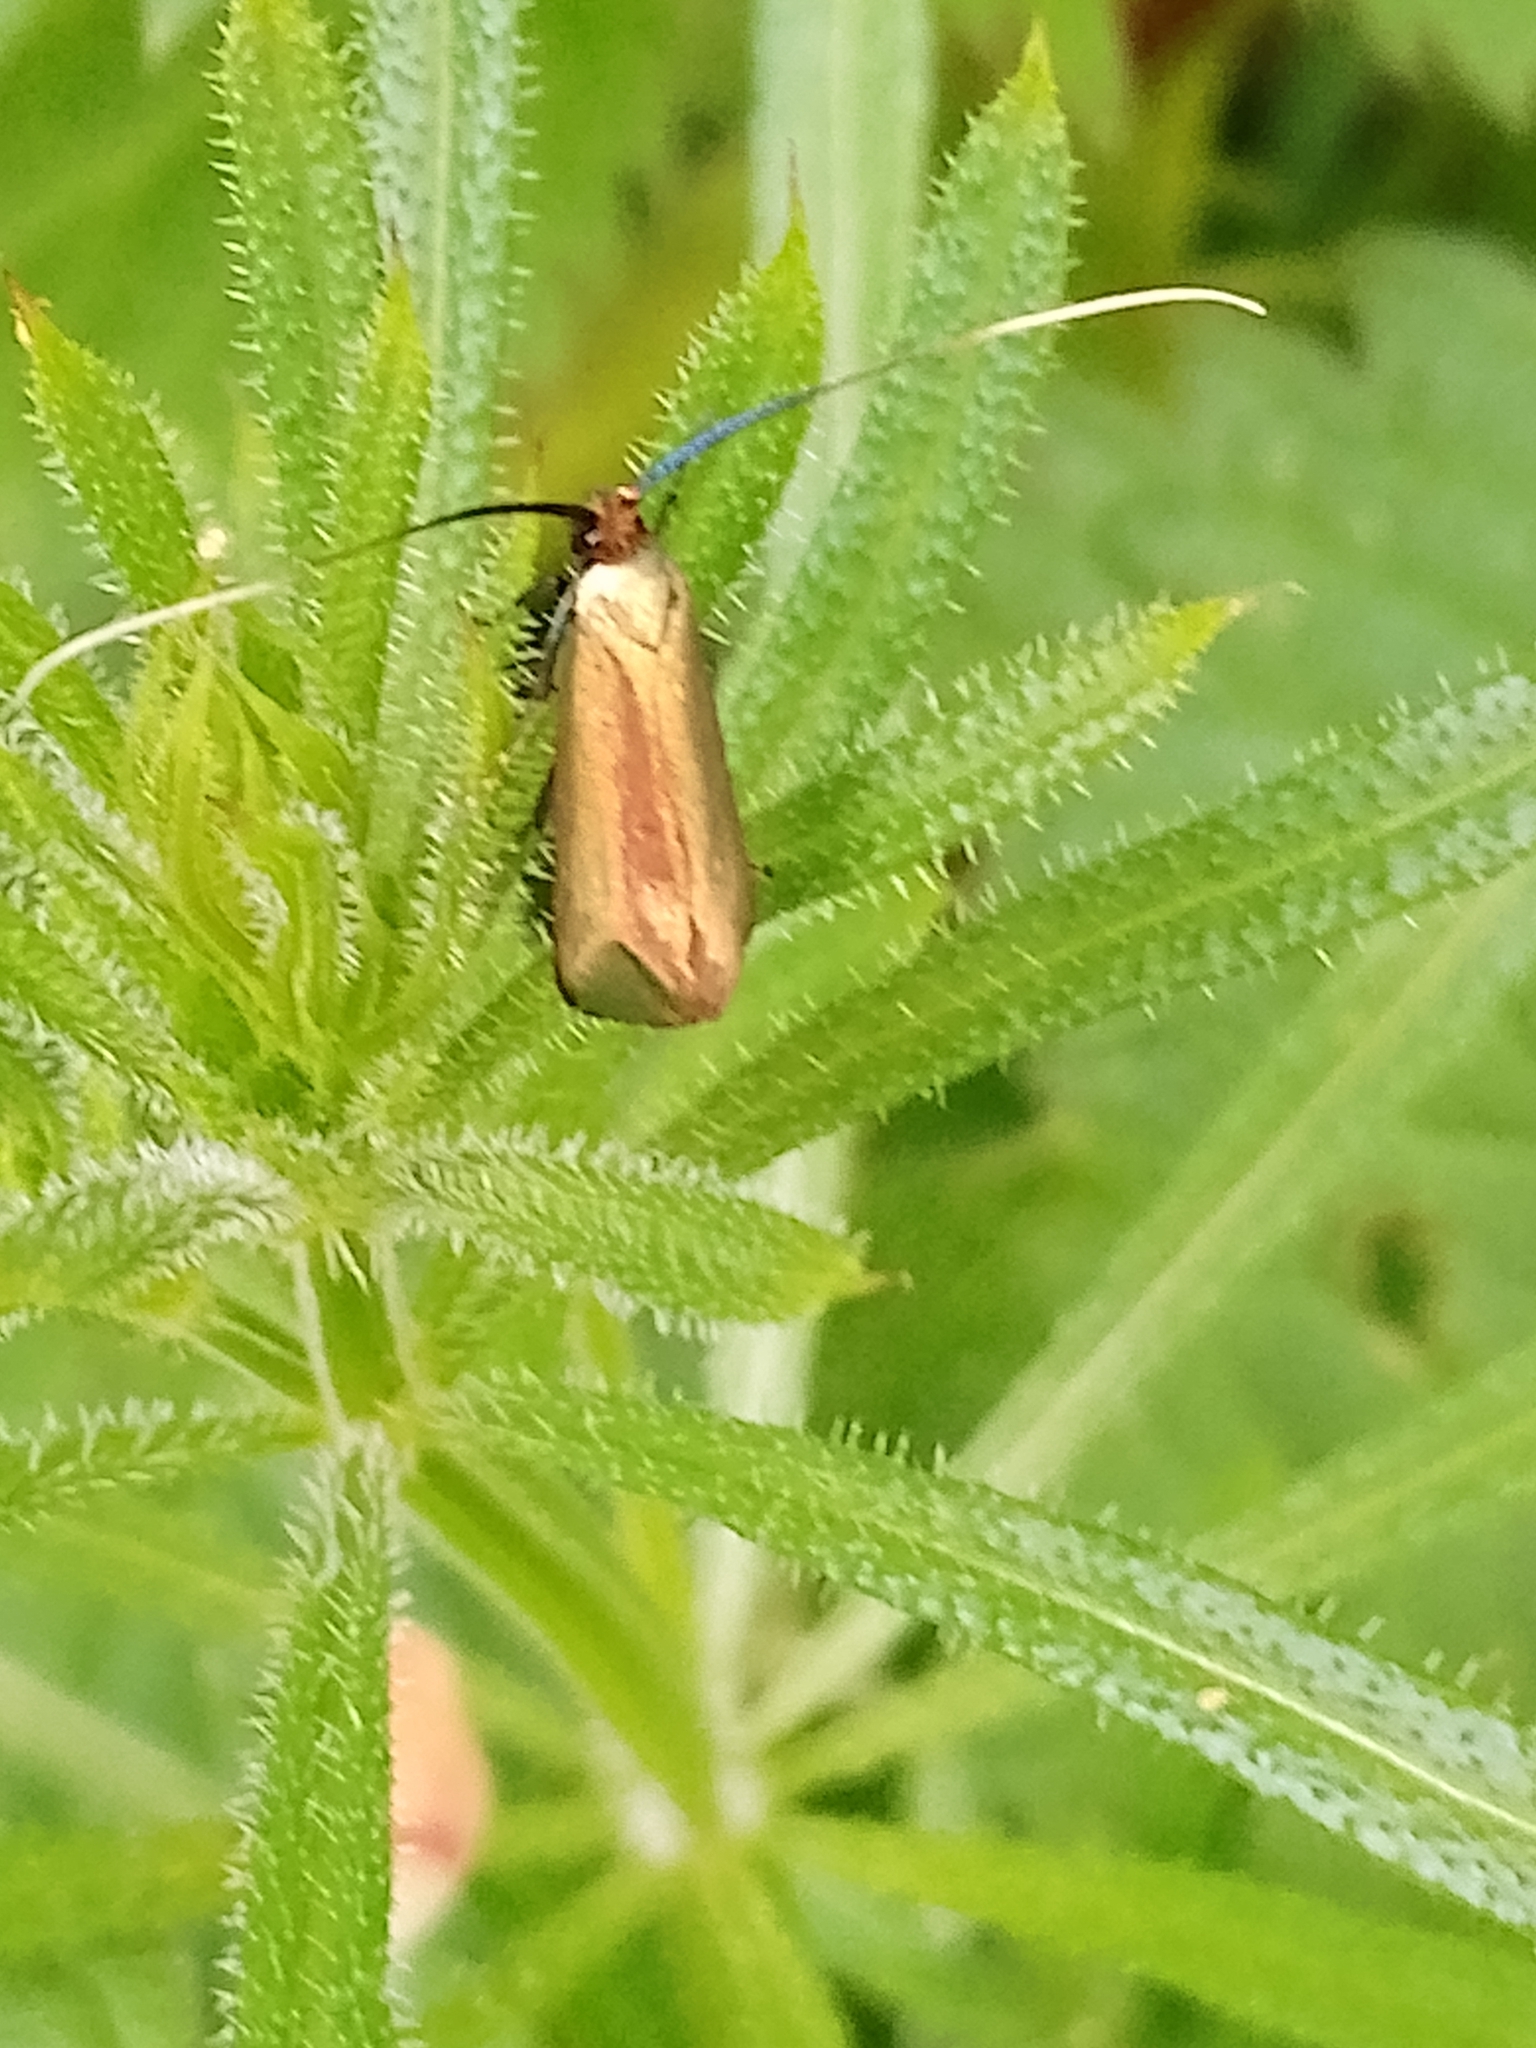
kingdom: Animalia
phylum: Arthropoda
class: Insecta
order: Lepidoptera
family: Adelidae
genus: Adela
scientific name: Adela viridella
